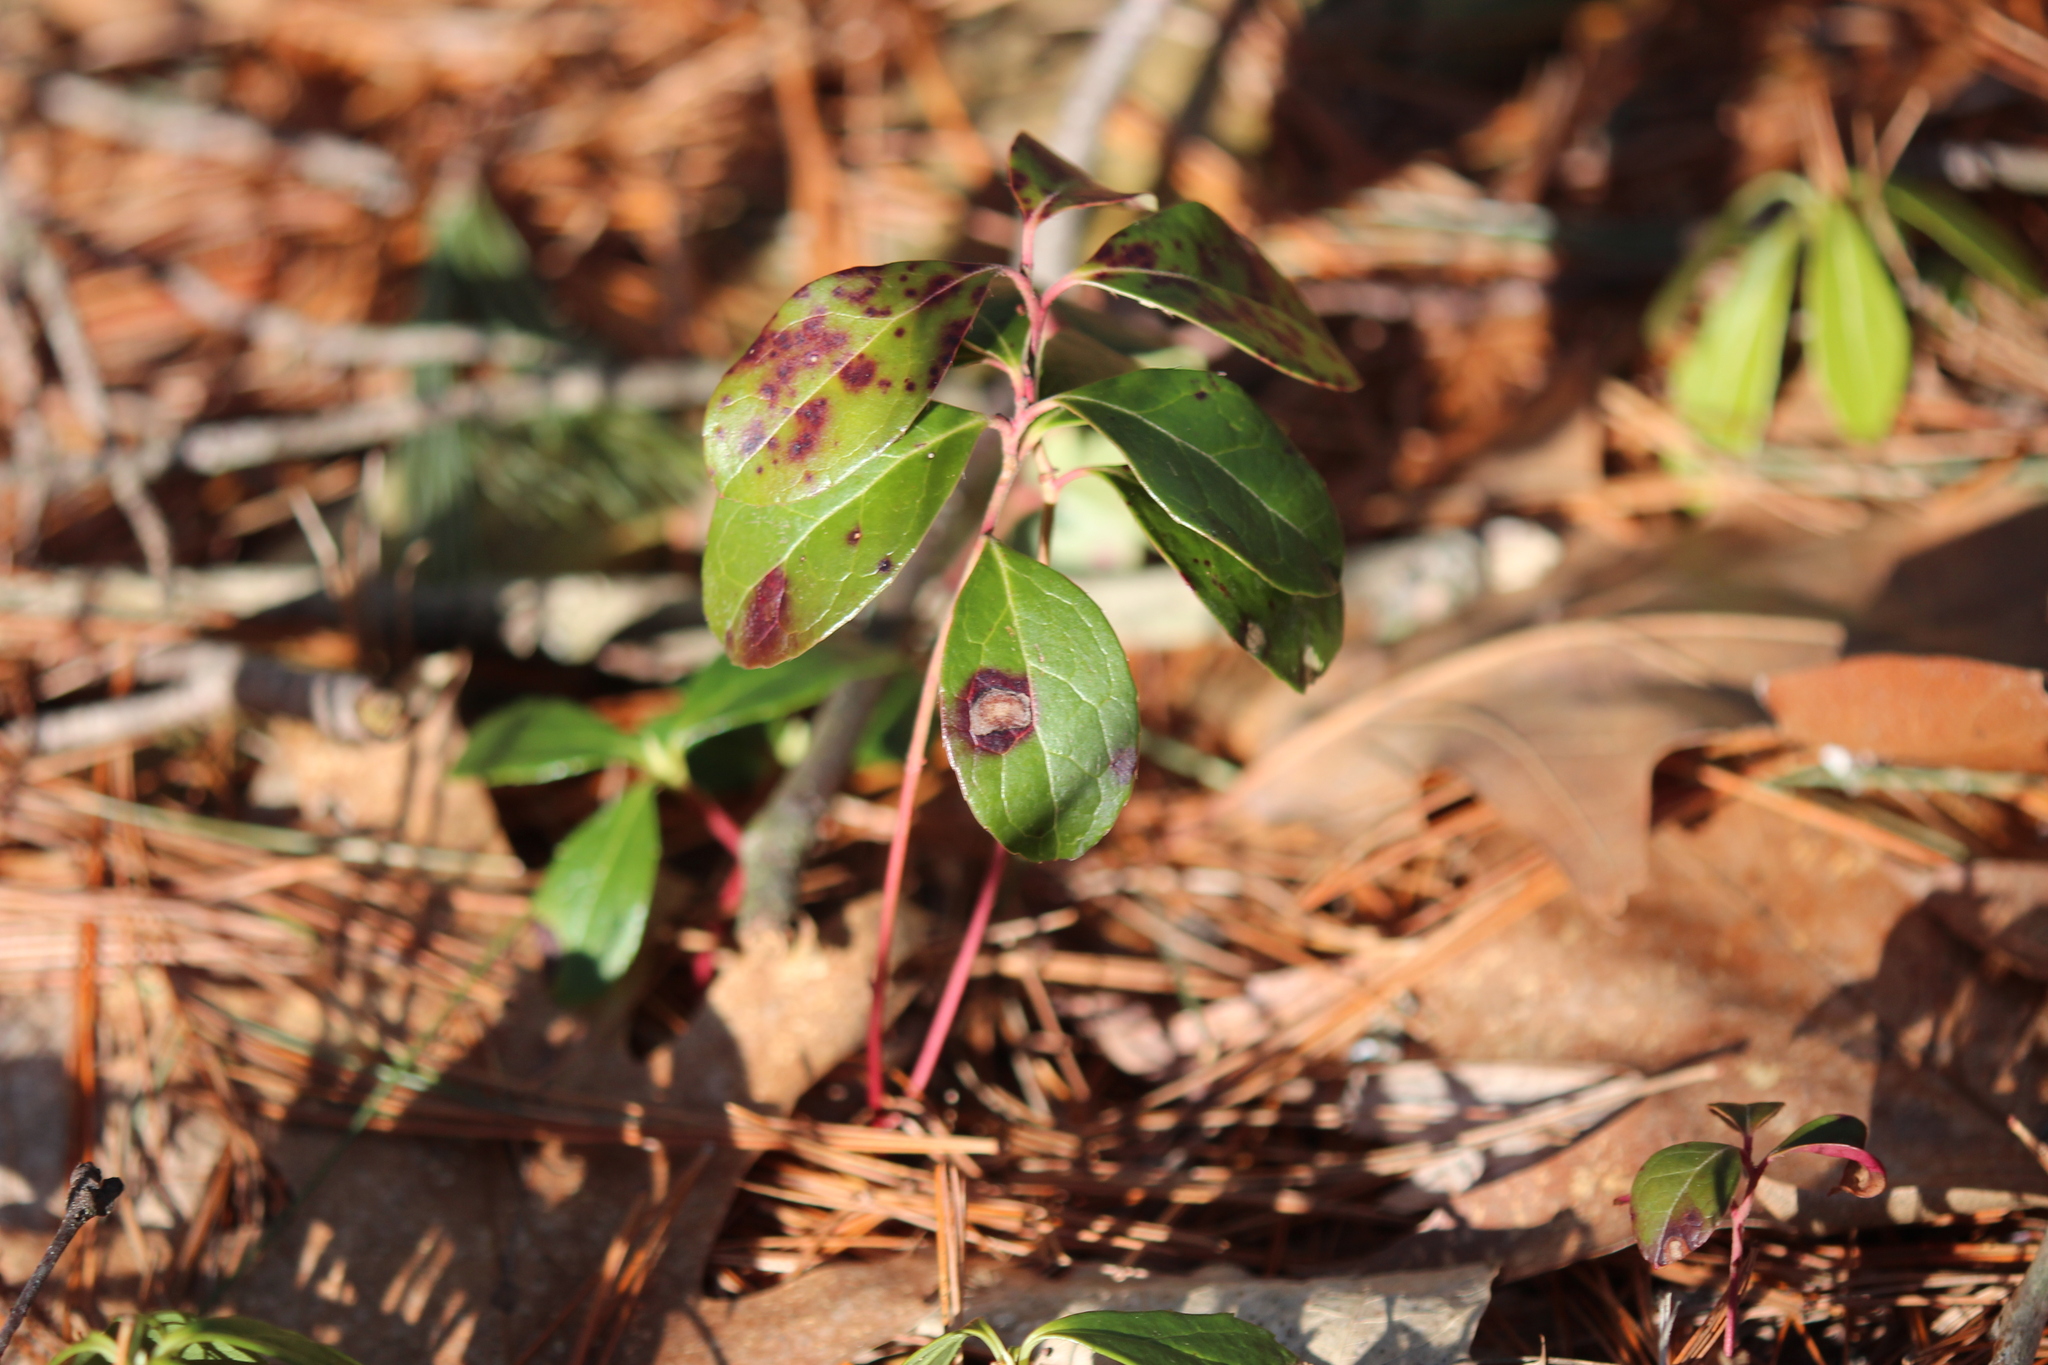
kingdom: Plantae
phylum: Tracheophyta
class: Magnoliopsida
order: Ericales
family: Ericaceae
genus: Gaultheria
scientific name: Gaultheria procumbens
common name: Checkerberry
